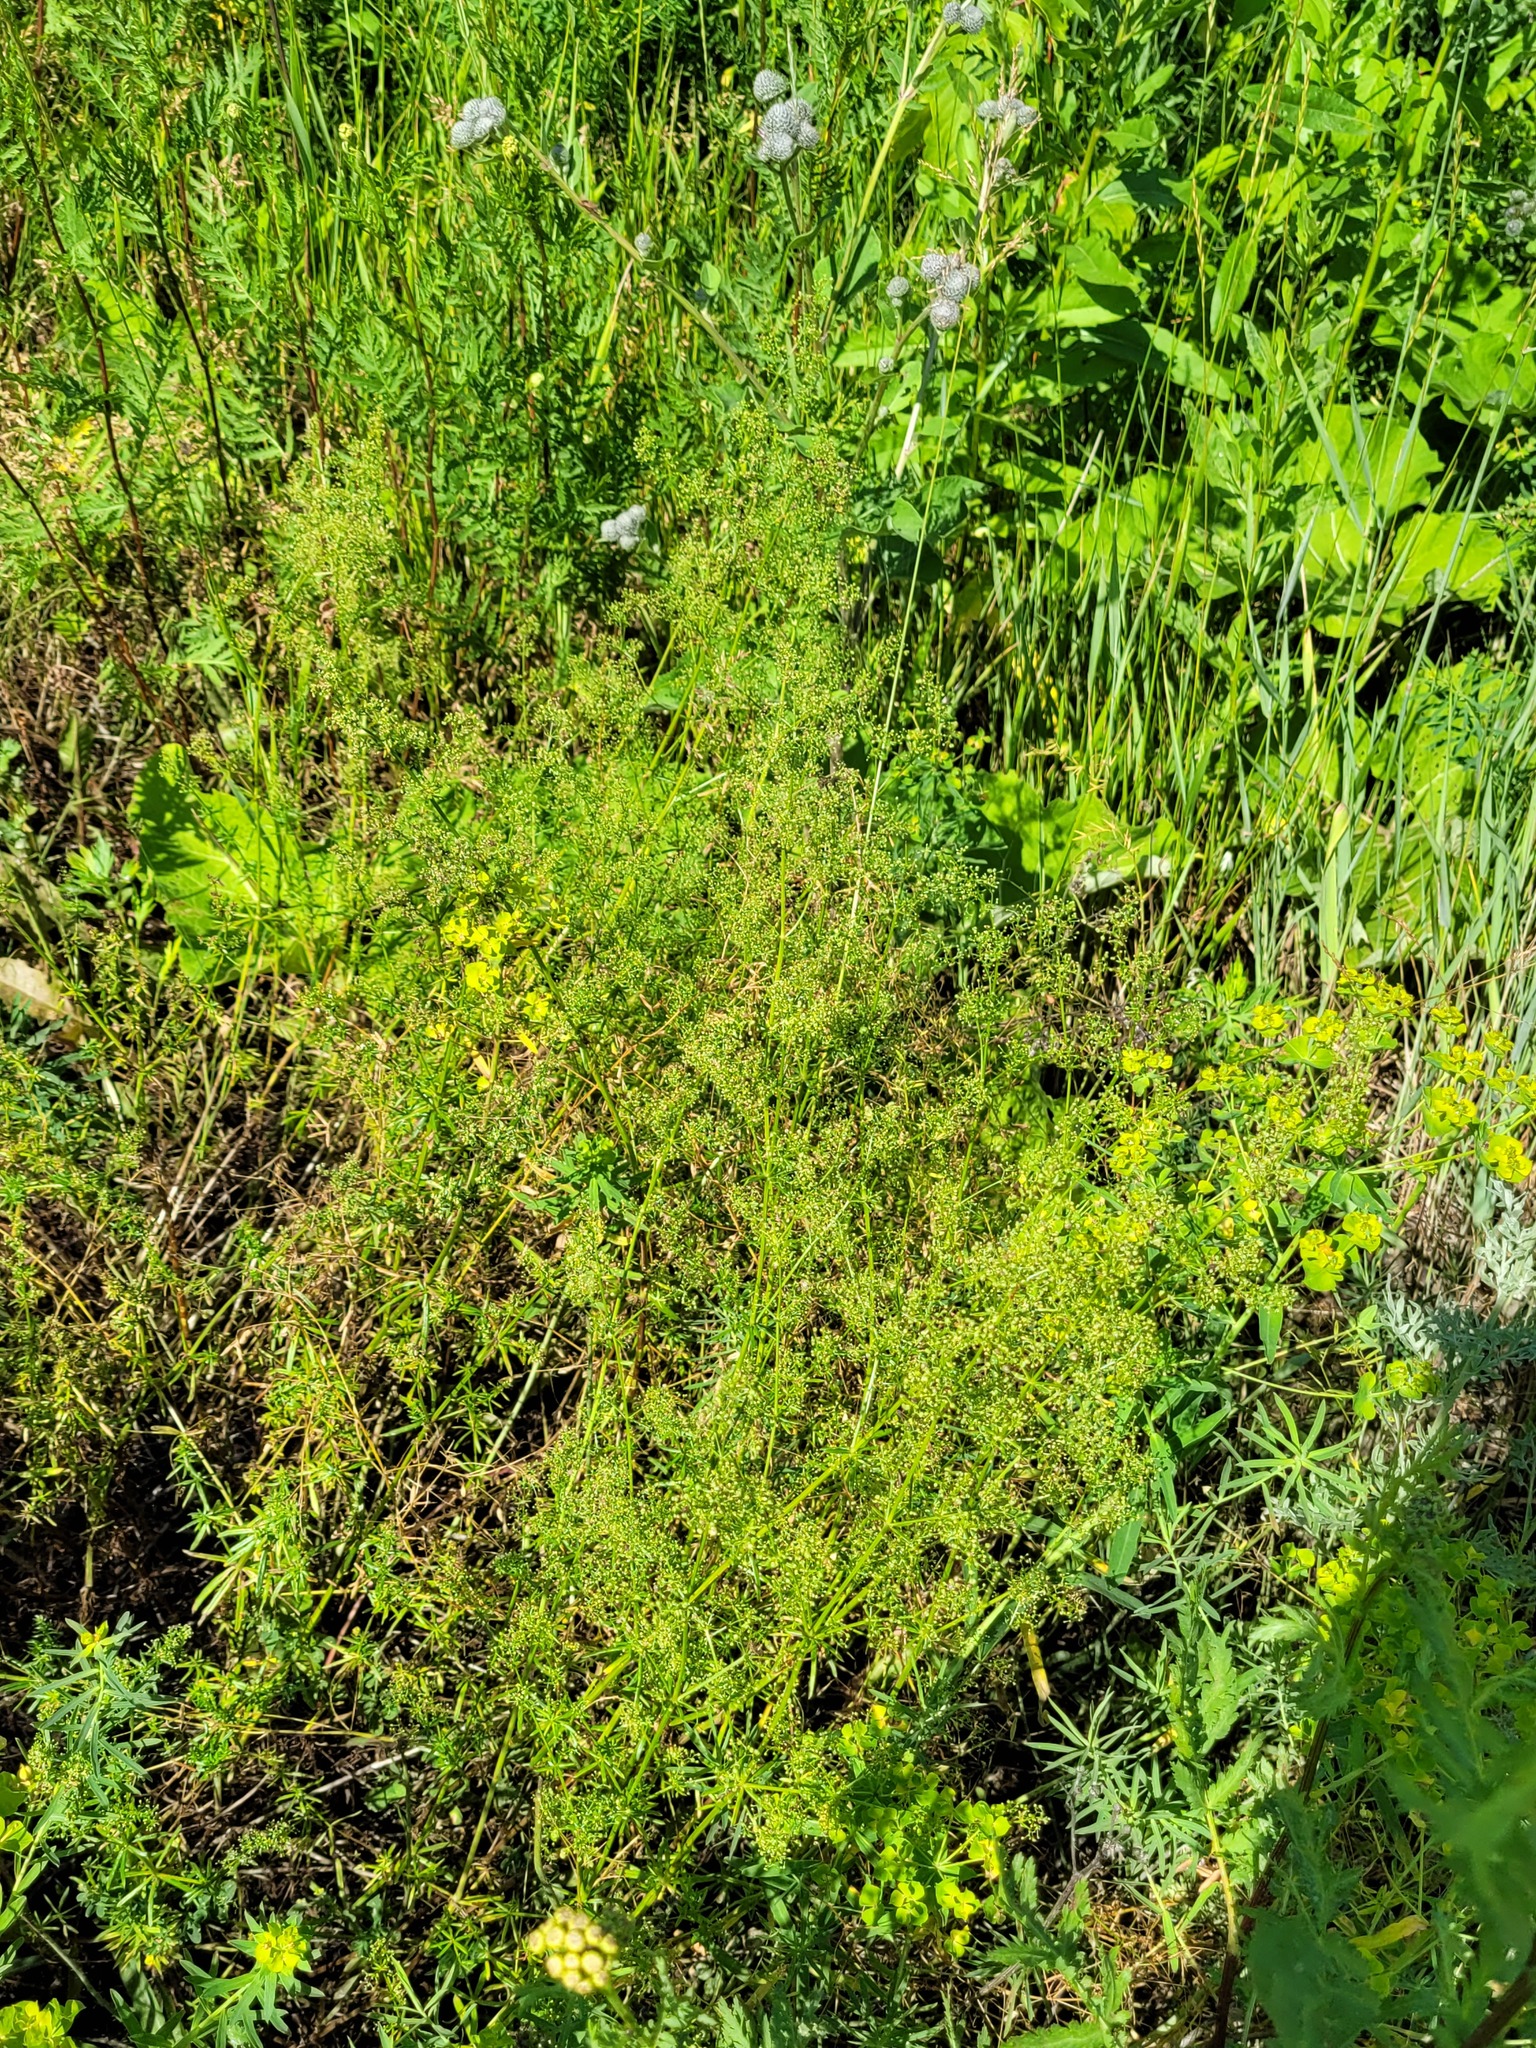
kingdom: Plantae
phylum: Tracheophyta
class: Magnoliopsida
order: Gentianales
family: Rubiaceae
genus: Galium
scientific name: Galium mollugo
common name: Hedge bedstraw
